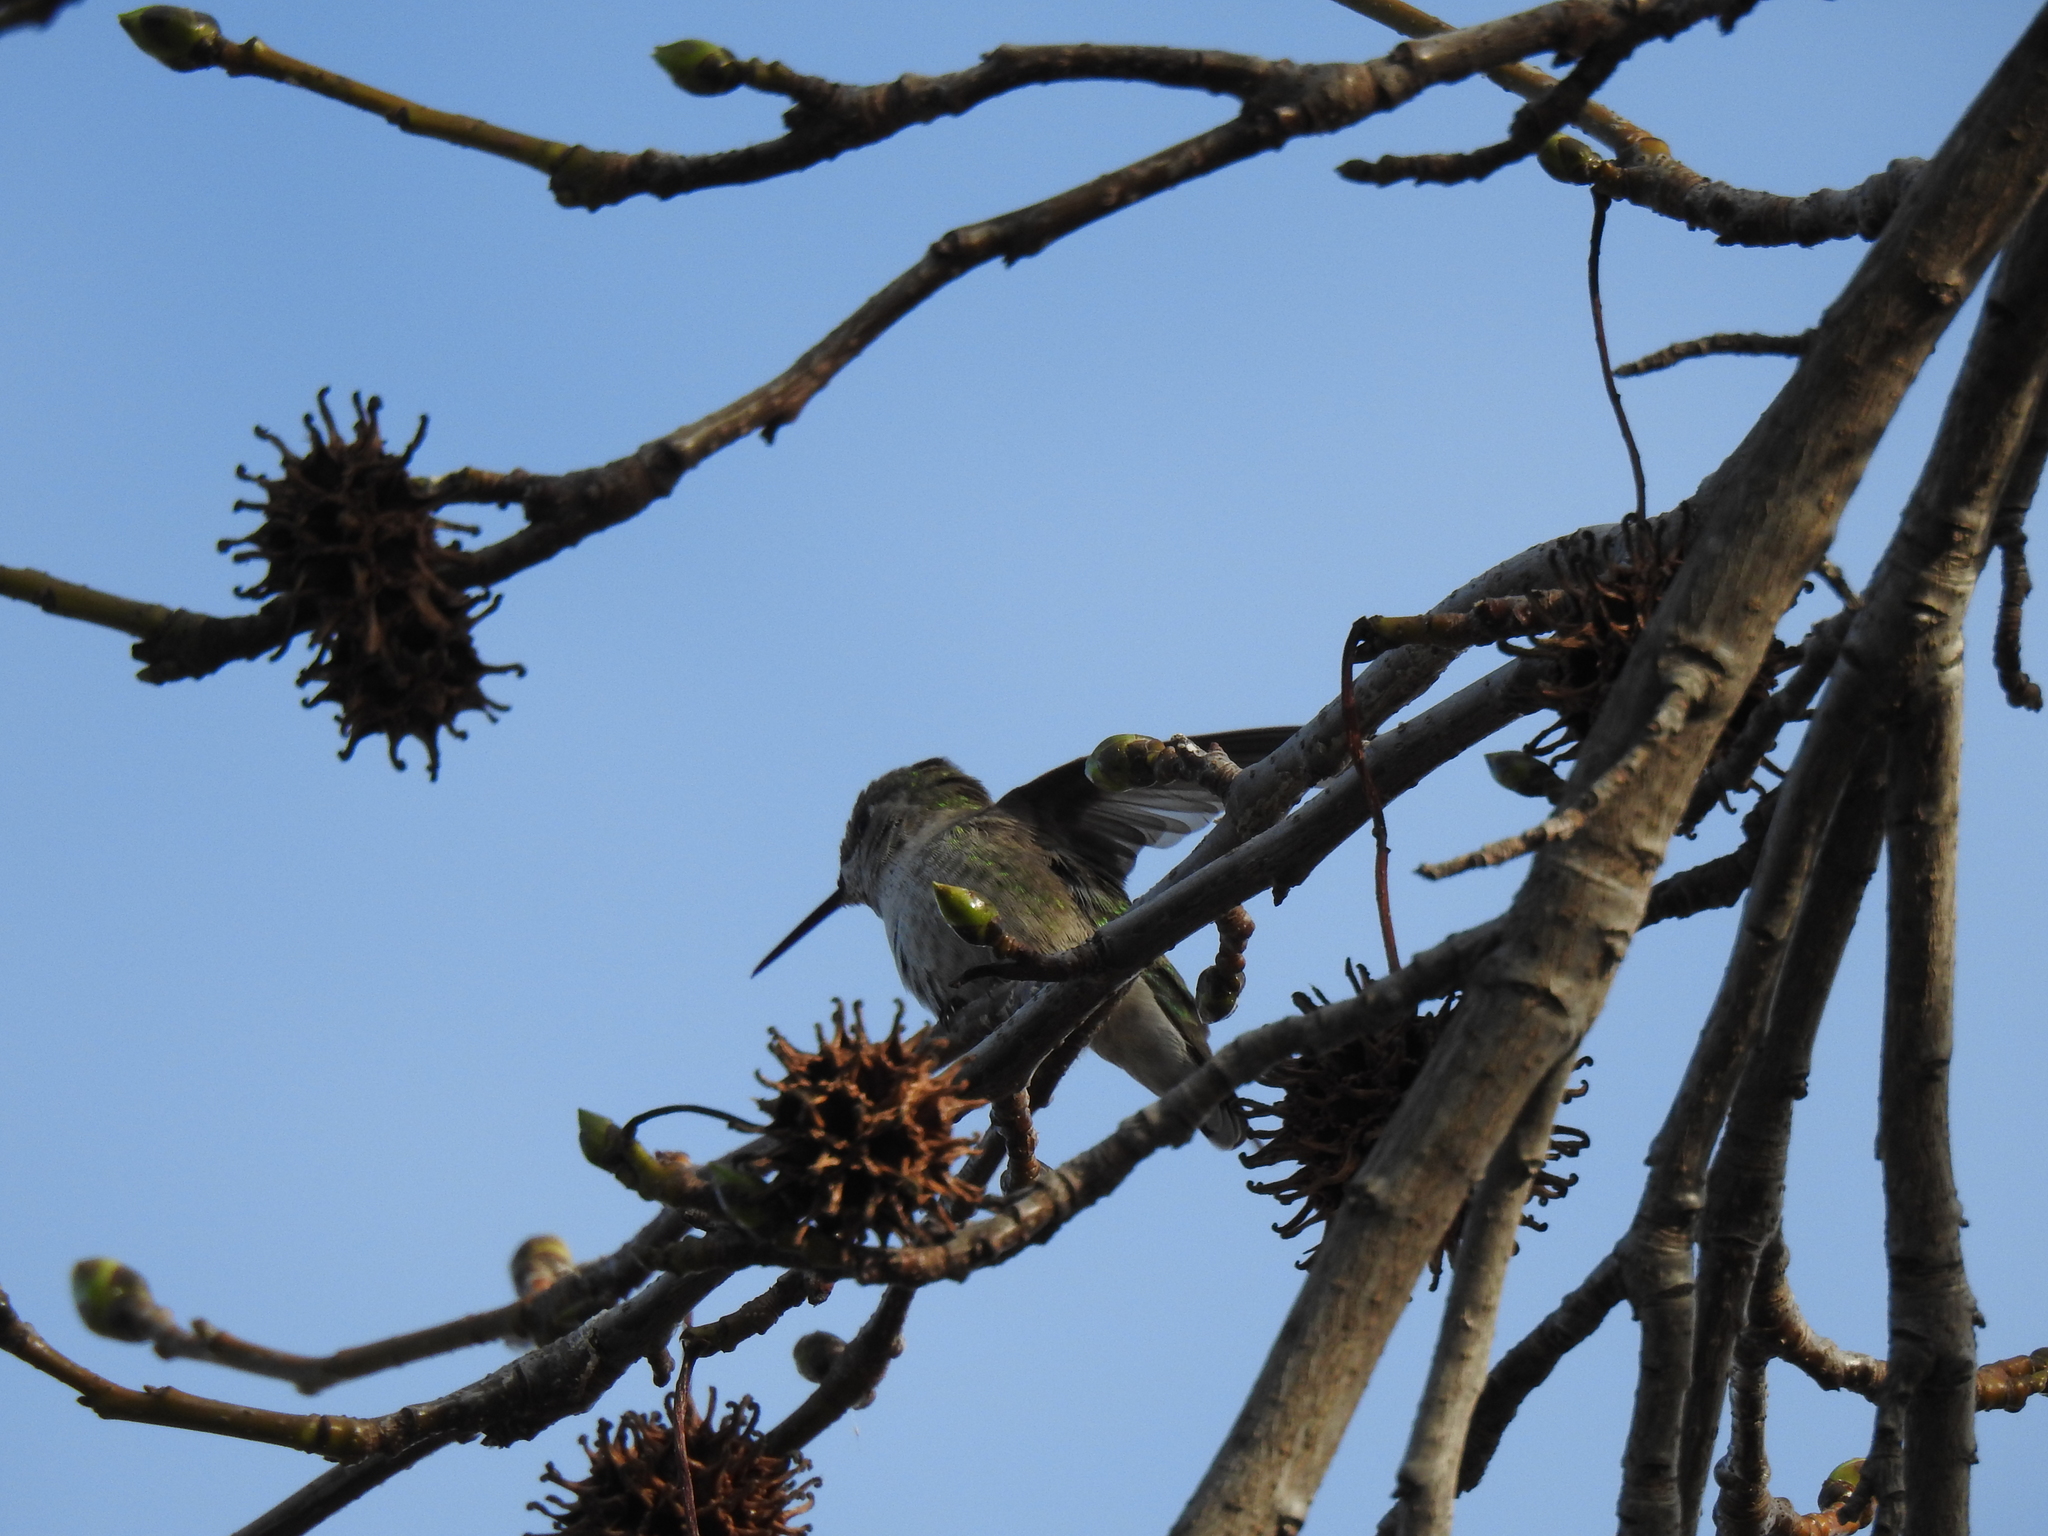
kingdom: Animalia
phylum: Chordata
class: Aves
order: Apodiformes
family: Trochilidae
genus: Calypte
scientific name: Calypte anna
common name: Anna's hummingbird
